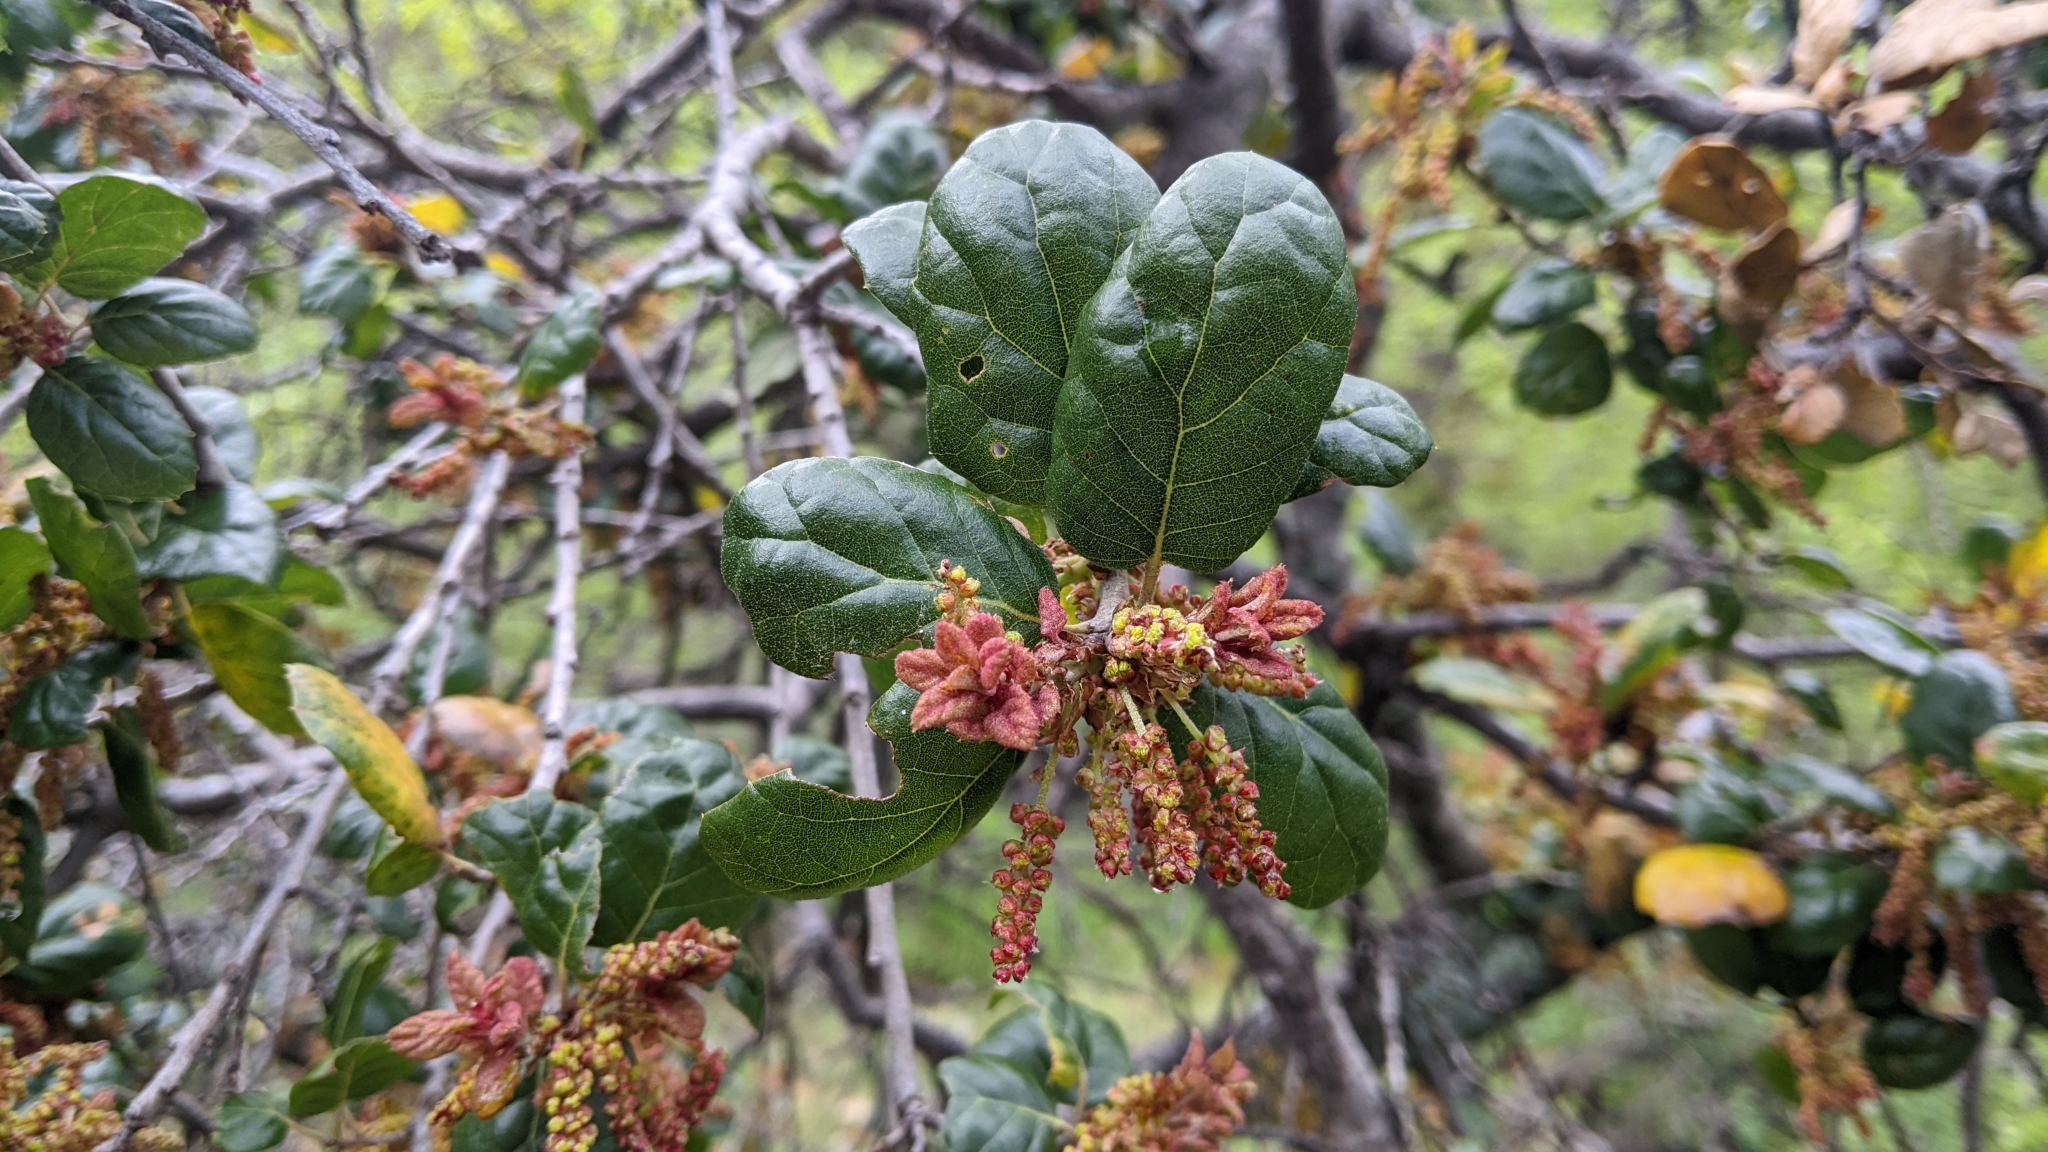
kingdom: Plantae
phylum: Tracheophyta
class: Magnoliopsida
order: Fagales
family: Fagaceae
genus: Quercus
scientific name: Quercus agrifolia
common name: California live oak
